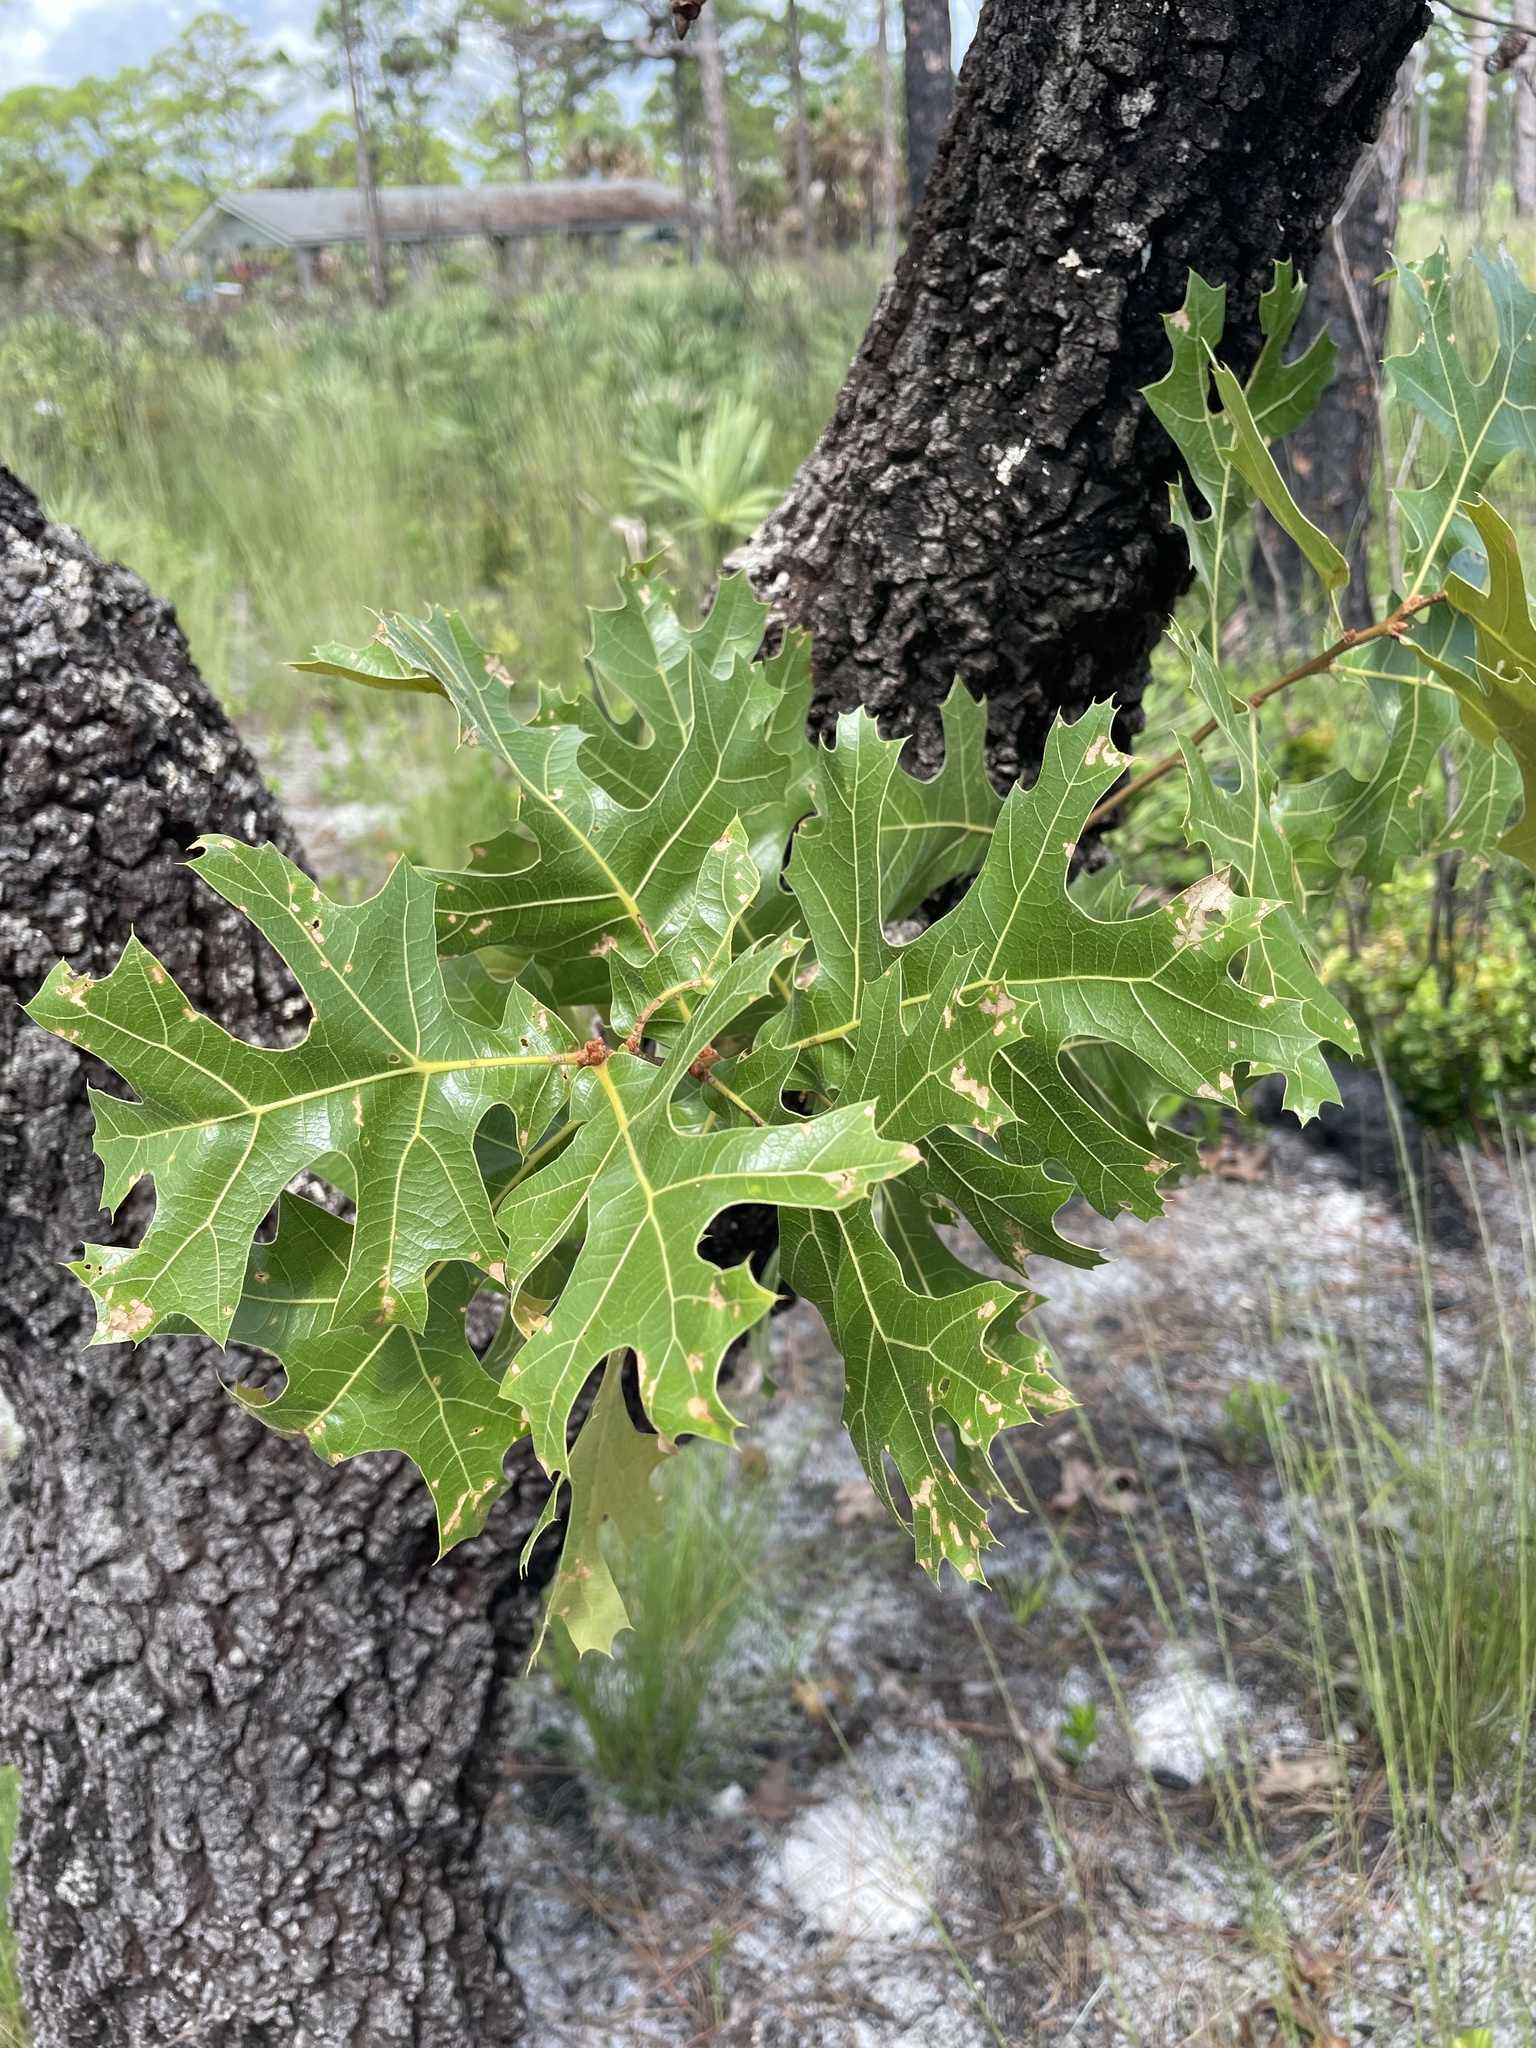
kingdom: Plantae
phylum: Tracheophyta
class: Magnoliopsida
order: Fagales
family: Fagaceae
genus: Quercus
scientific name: Quercus laevis
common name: Turkey oak
